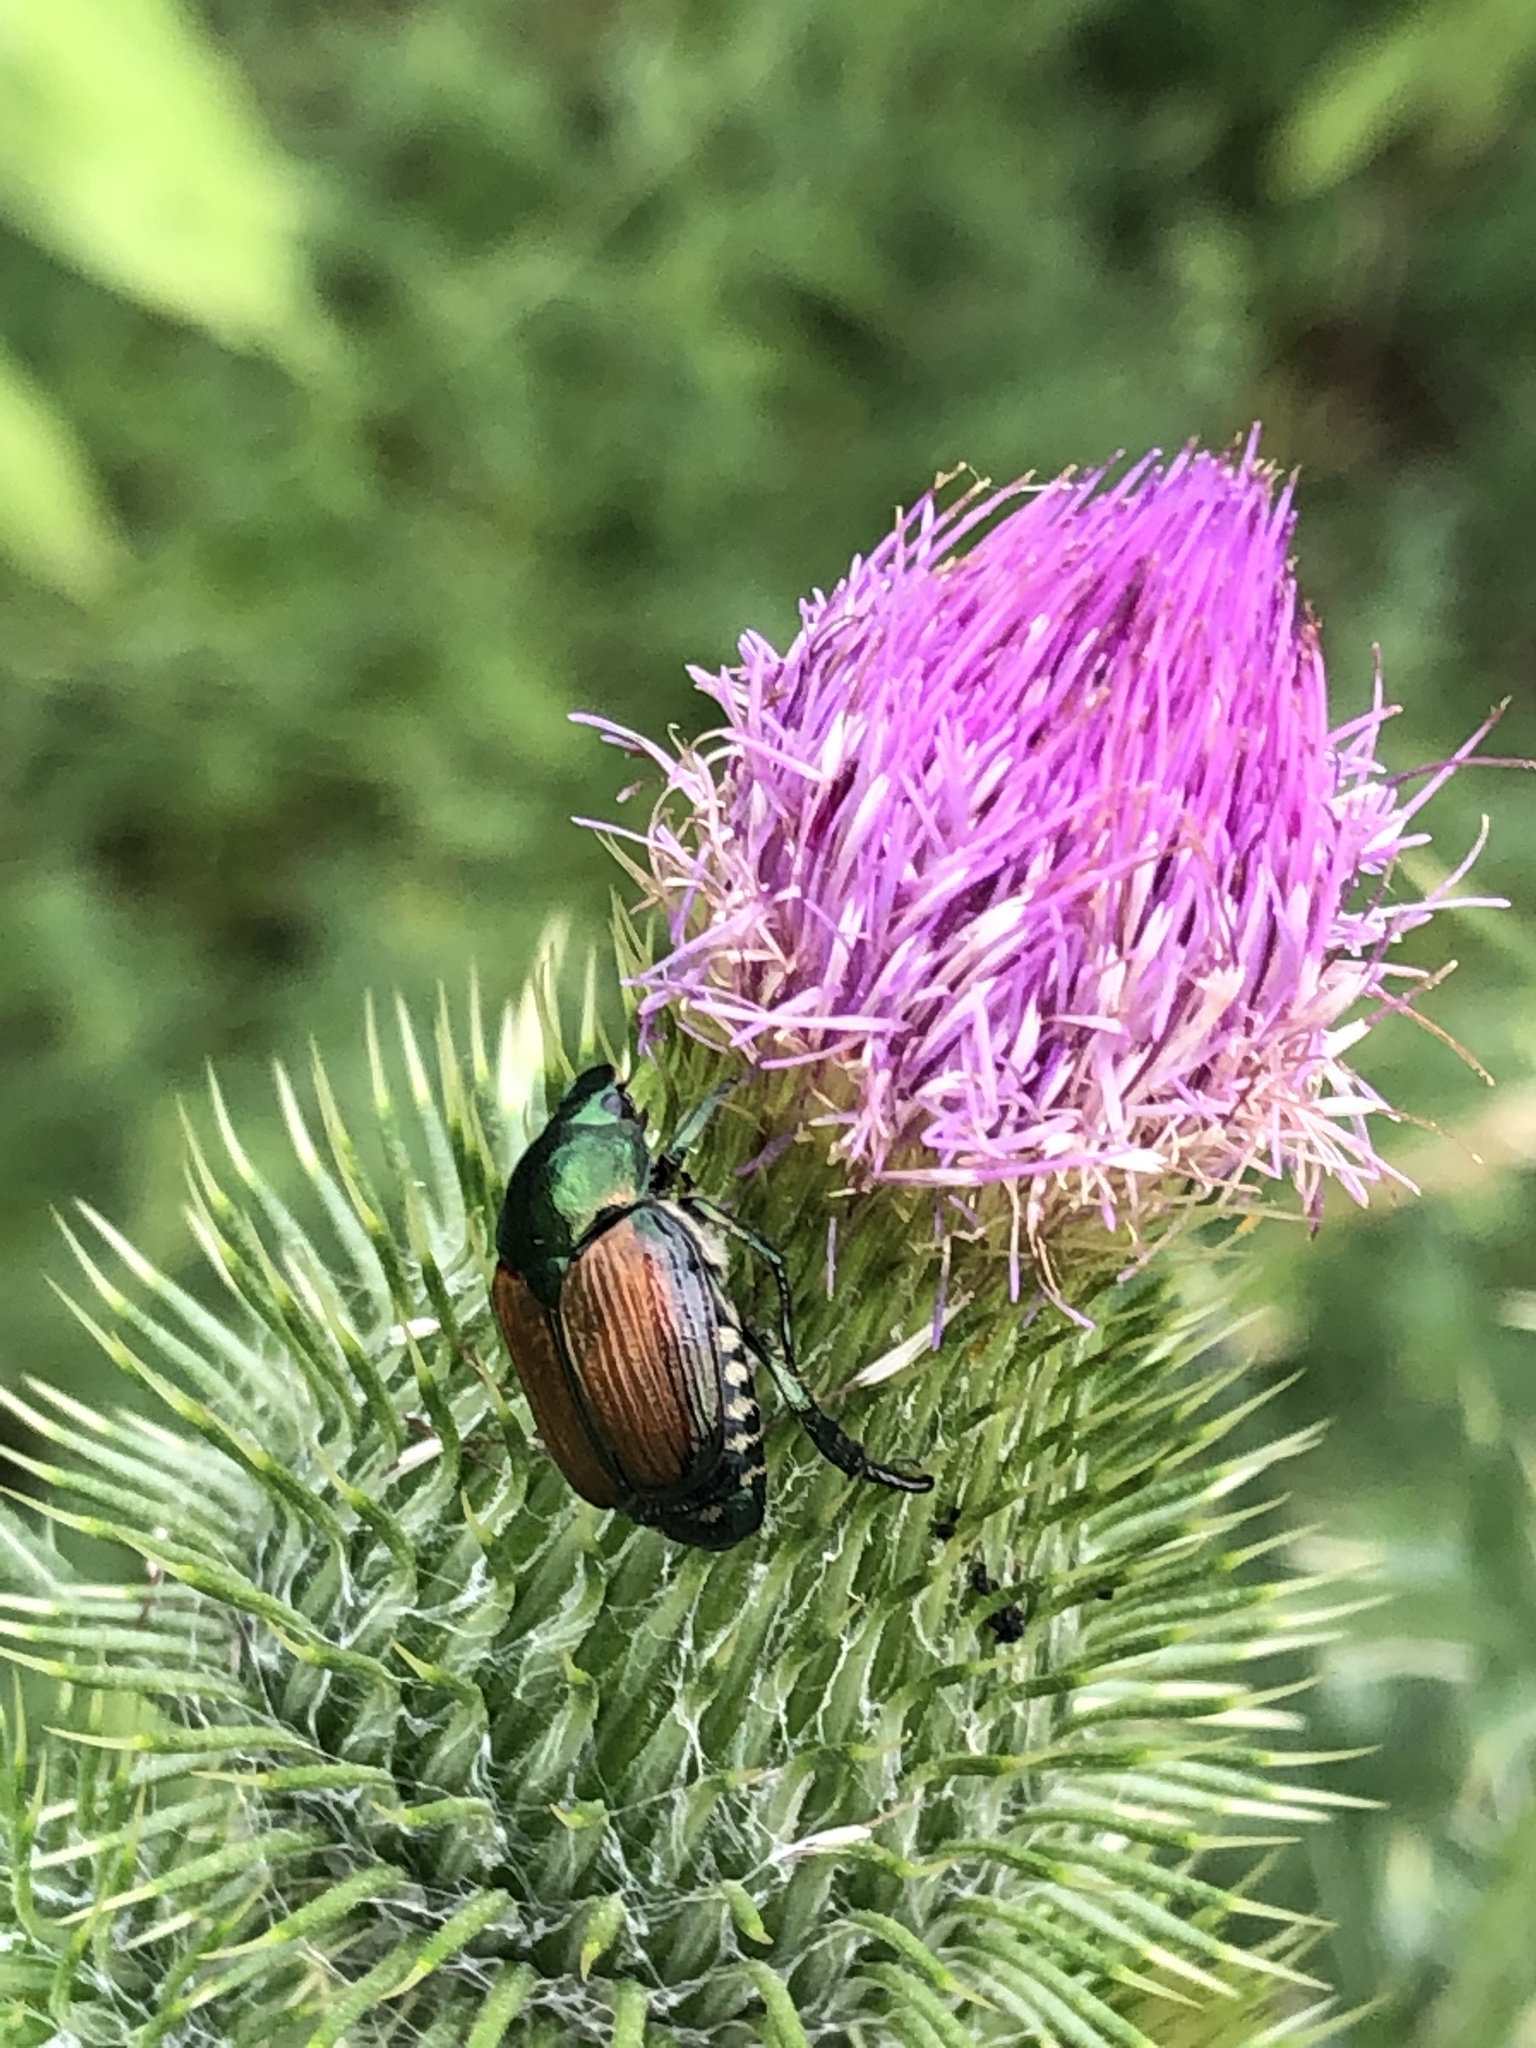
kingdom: Animalia
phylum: Arthropoda
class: Insecta
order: Coleoptera
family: Scarabaeidae
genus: Popillia
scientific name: Popillia japonica
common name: Japanese beetle
